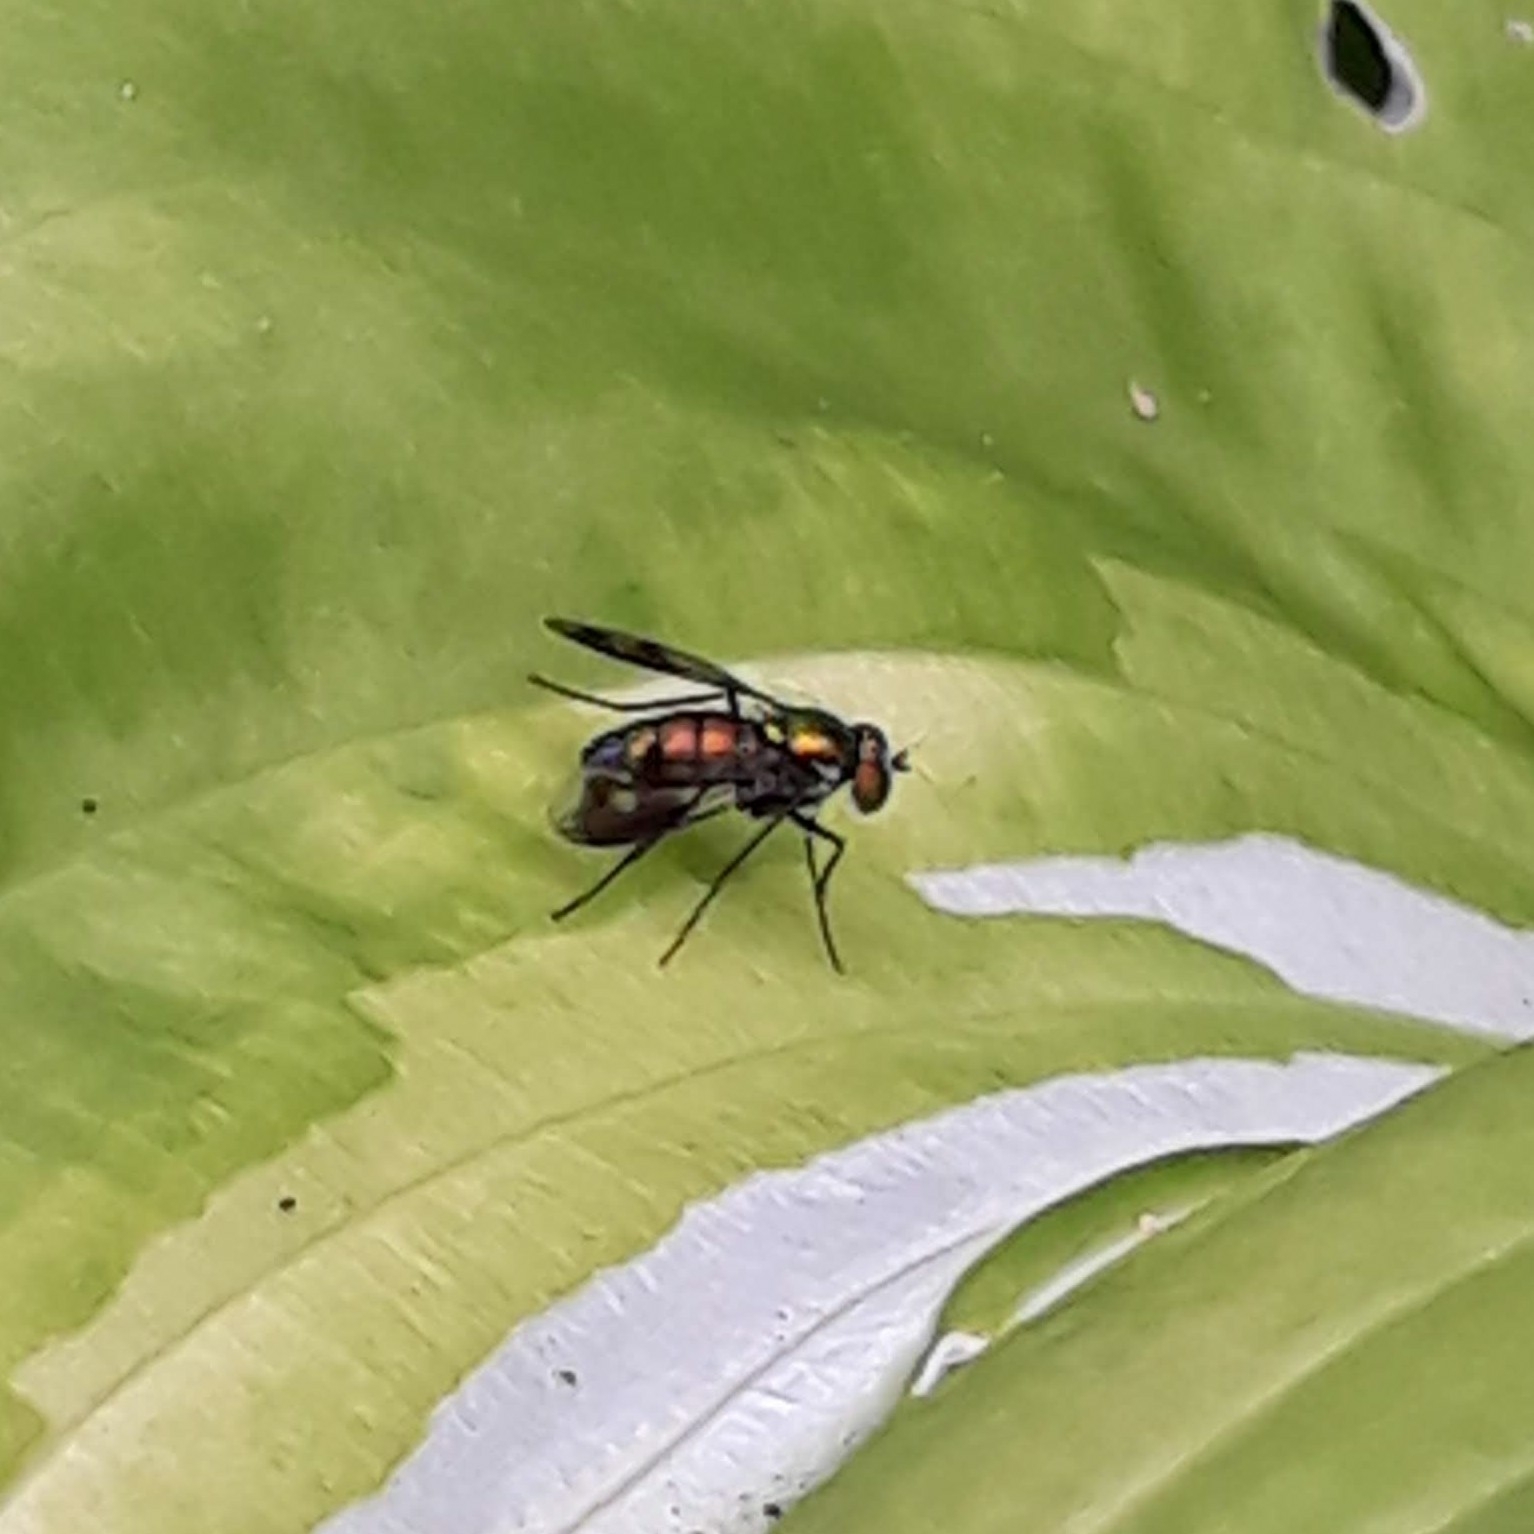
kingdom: Animalia
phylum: Arthropoda
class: Insecta
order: Diptera
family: Dolichopodidae
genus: Condylostylus
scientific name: Condylostylus patibulatus
